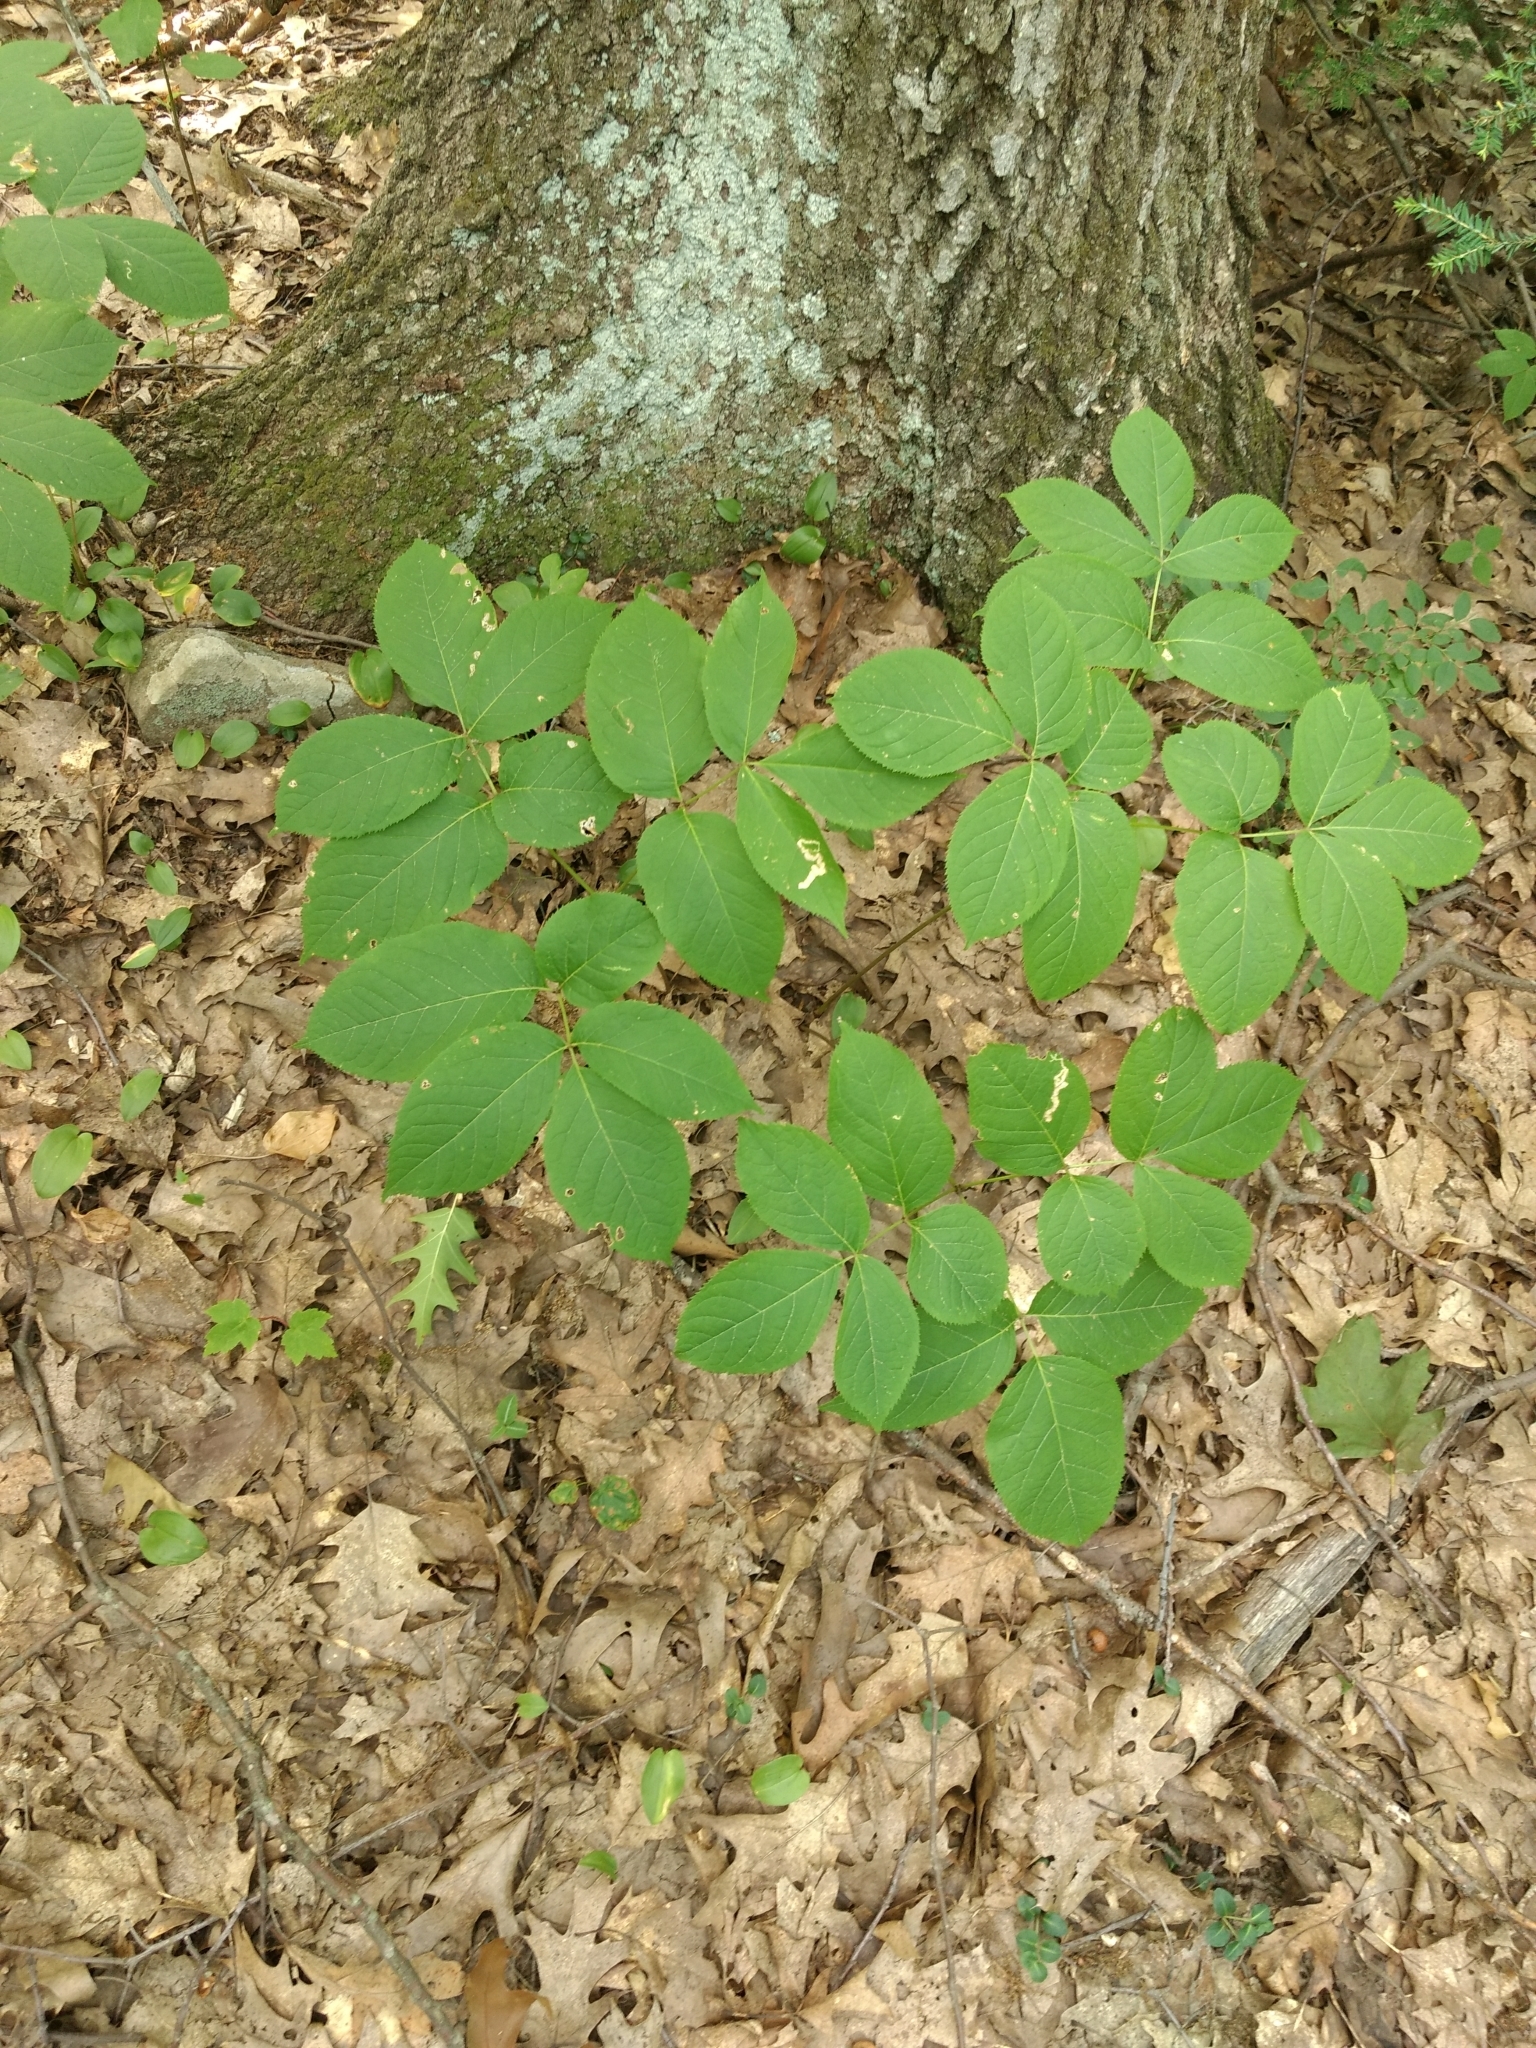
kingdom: Plantae
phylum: Tracheophyta
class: Magnoliopsida
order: Apiales
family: Araliaceae
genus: Aralia
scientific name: Aralia nudicaulis
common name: Wild sarsaparilla
